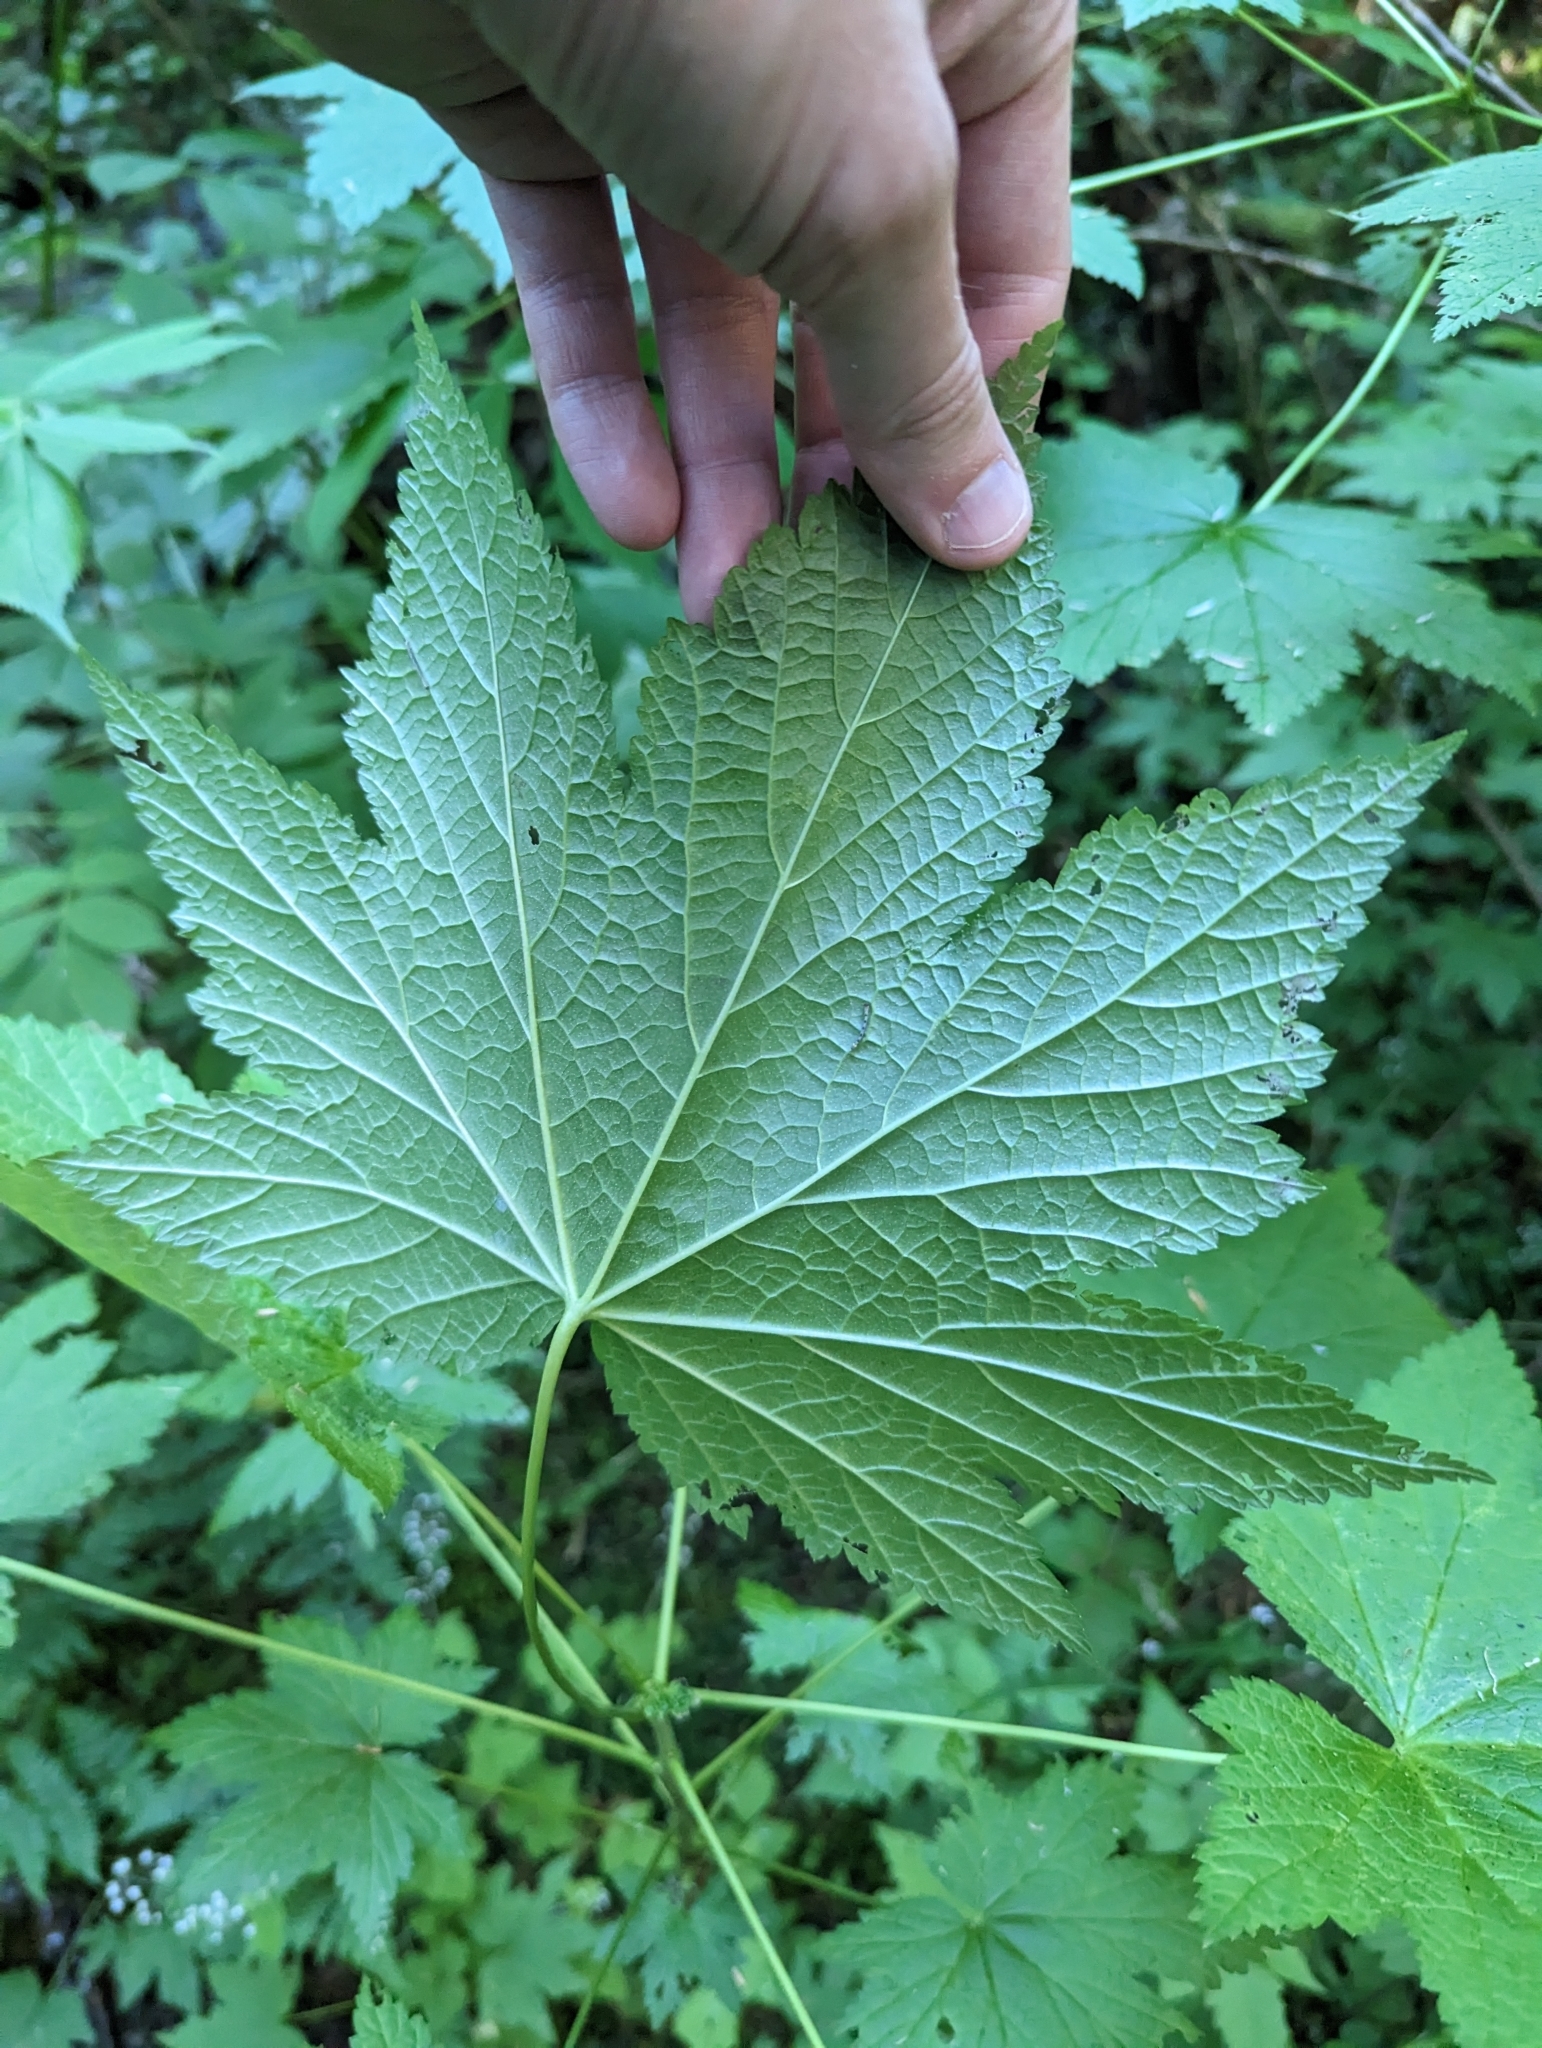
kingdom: Plantae
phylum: Tracheophyta
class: Magnoliopsida
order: Saxifragales
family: Grossulariaceae
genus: Ribes
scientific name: Ribes bracteosum
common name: California black currant
